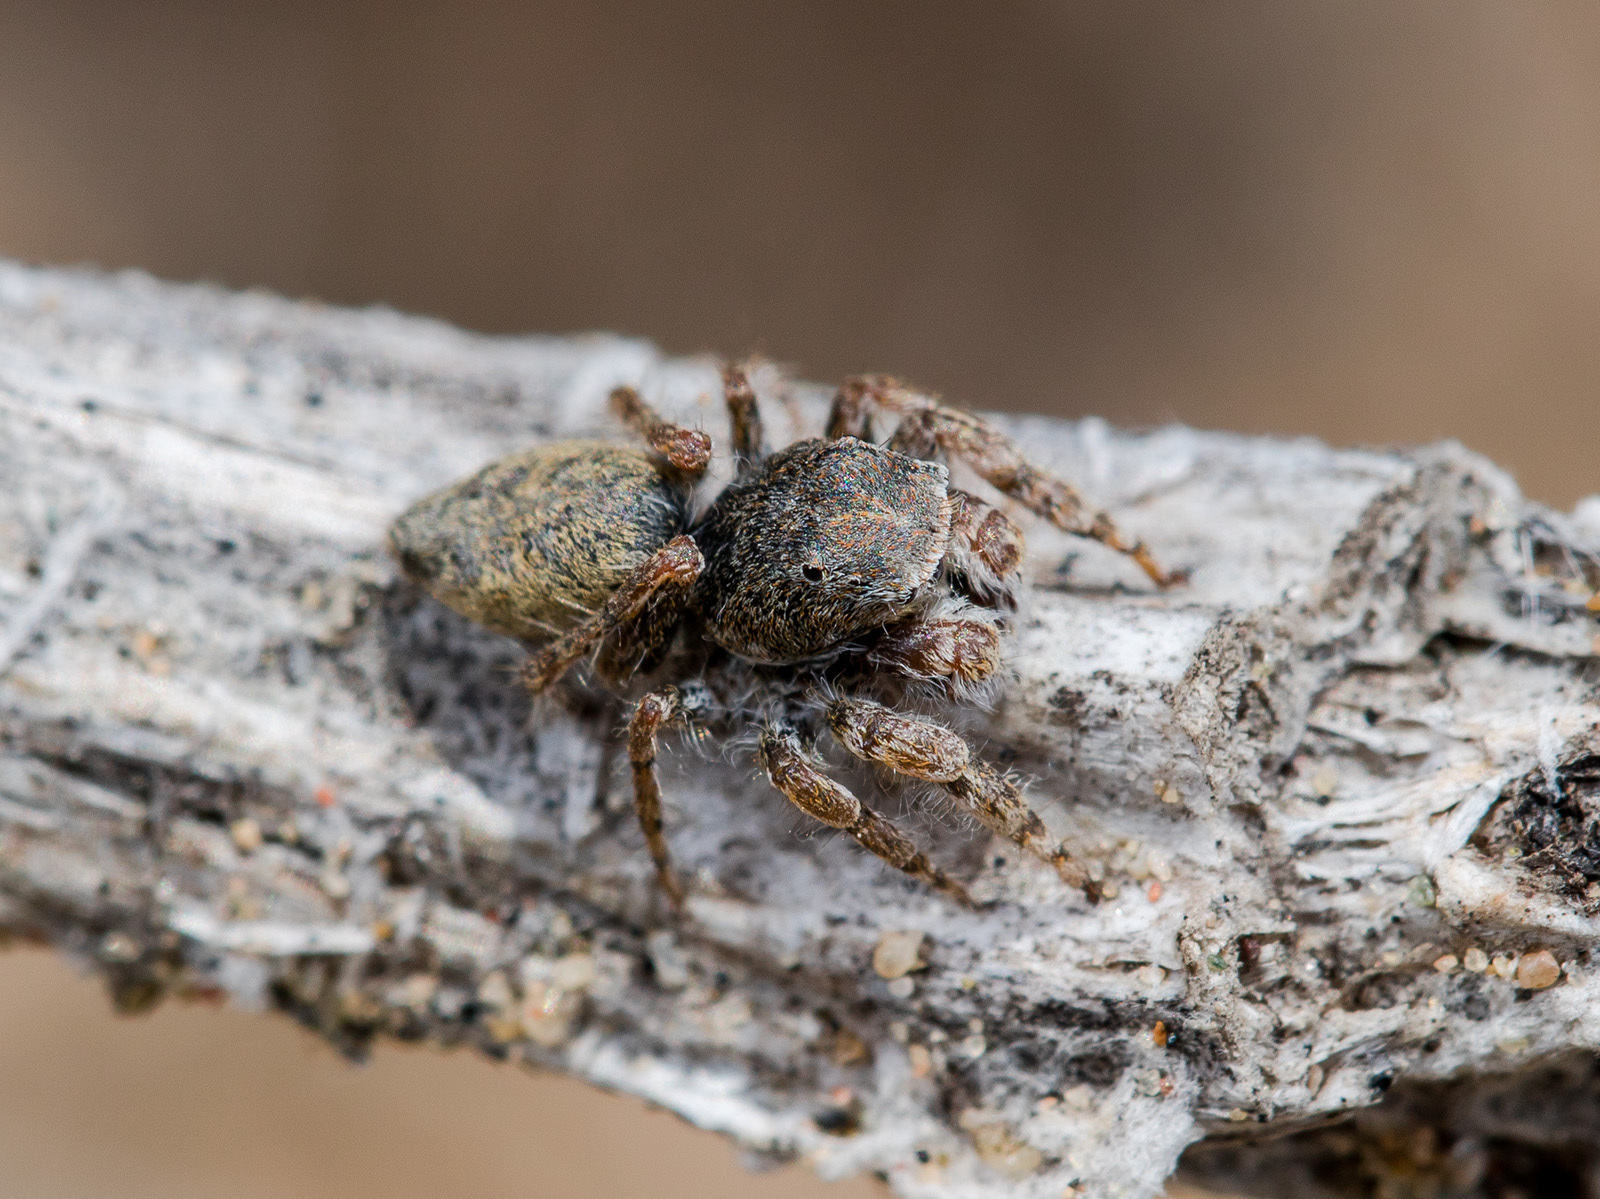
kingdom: Animalia
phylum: Arthropoda
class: Arachnida
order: Araneae
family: Salticidae
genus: Yllenus
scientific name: Yllenus turkestanicus
